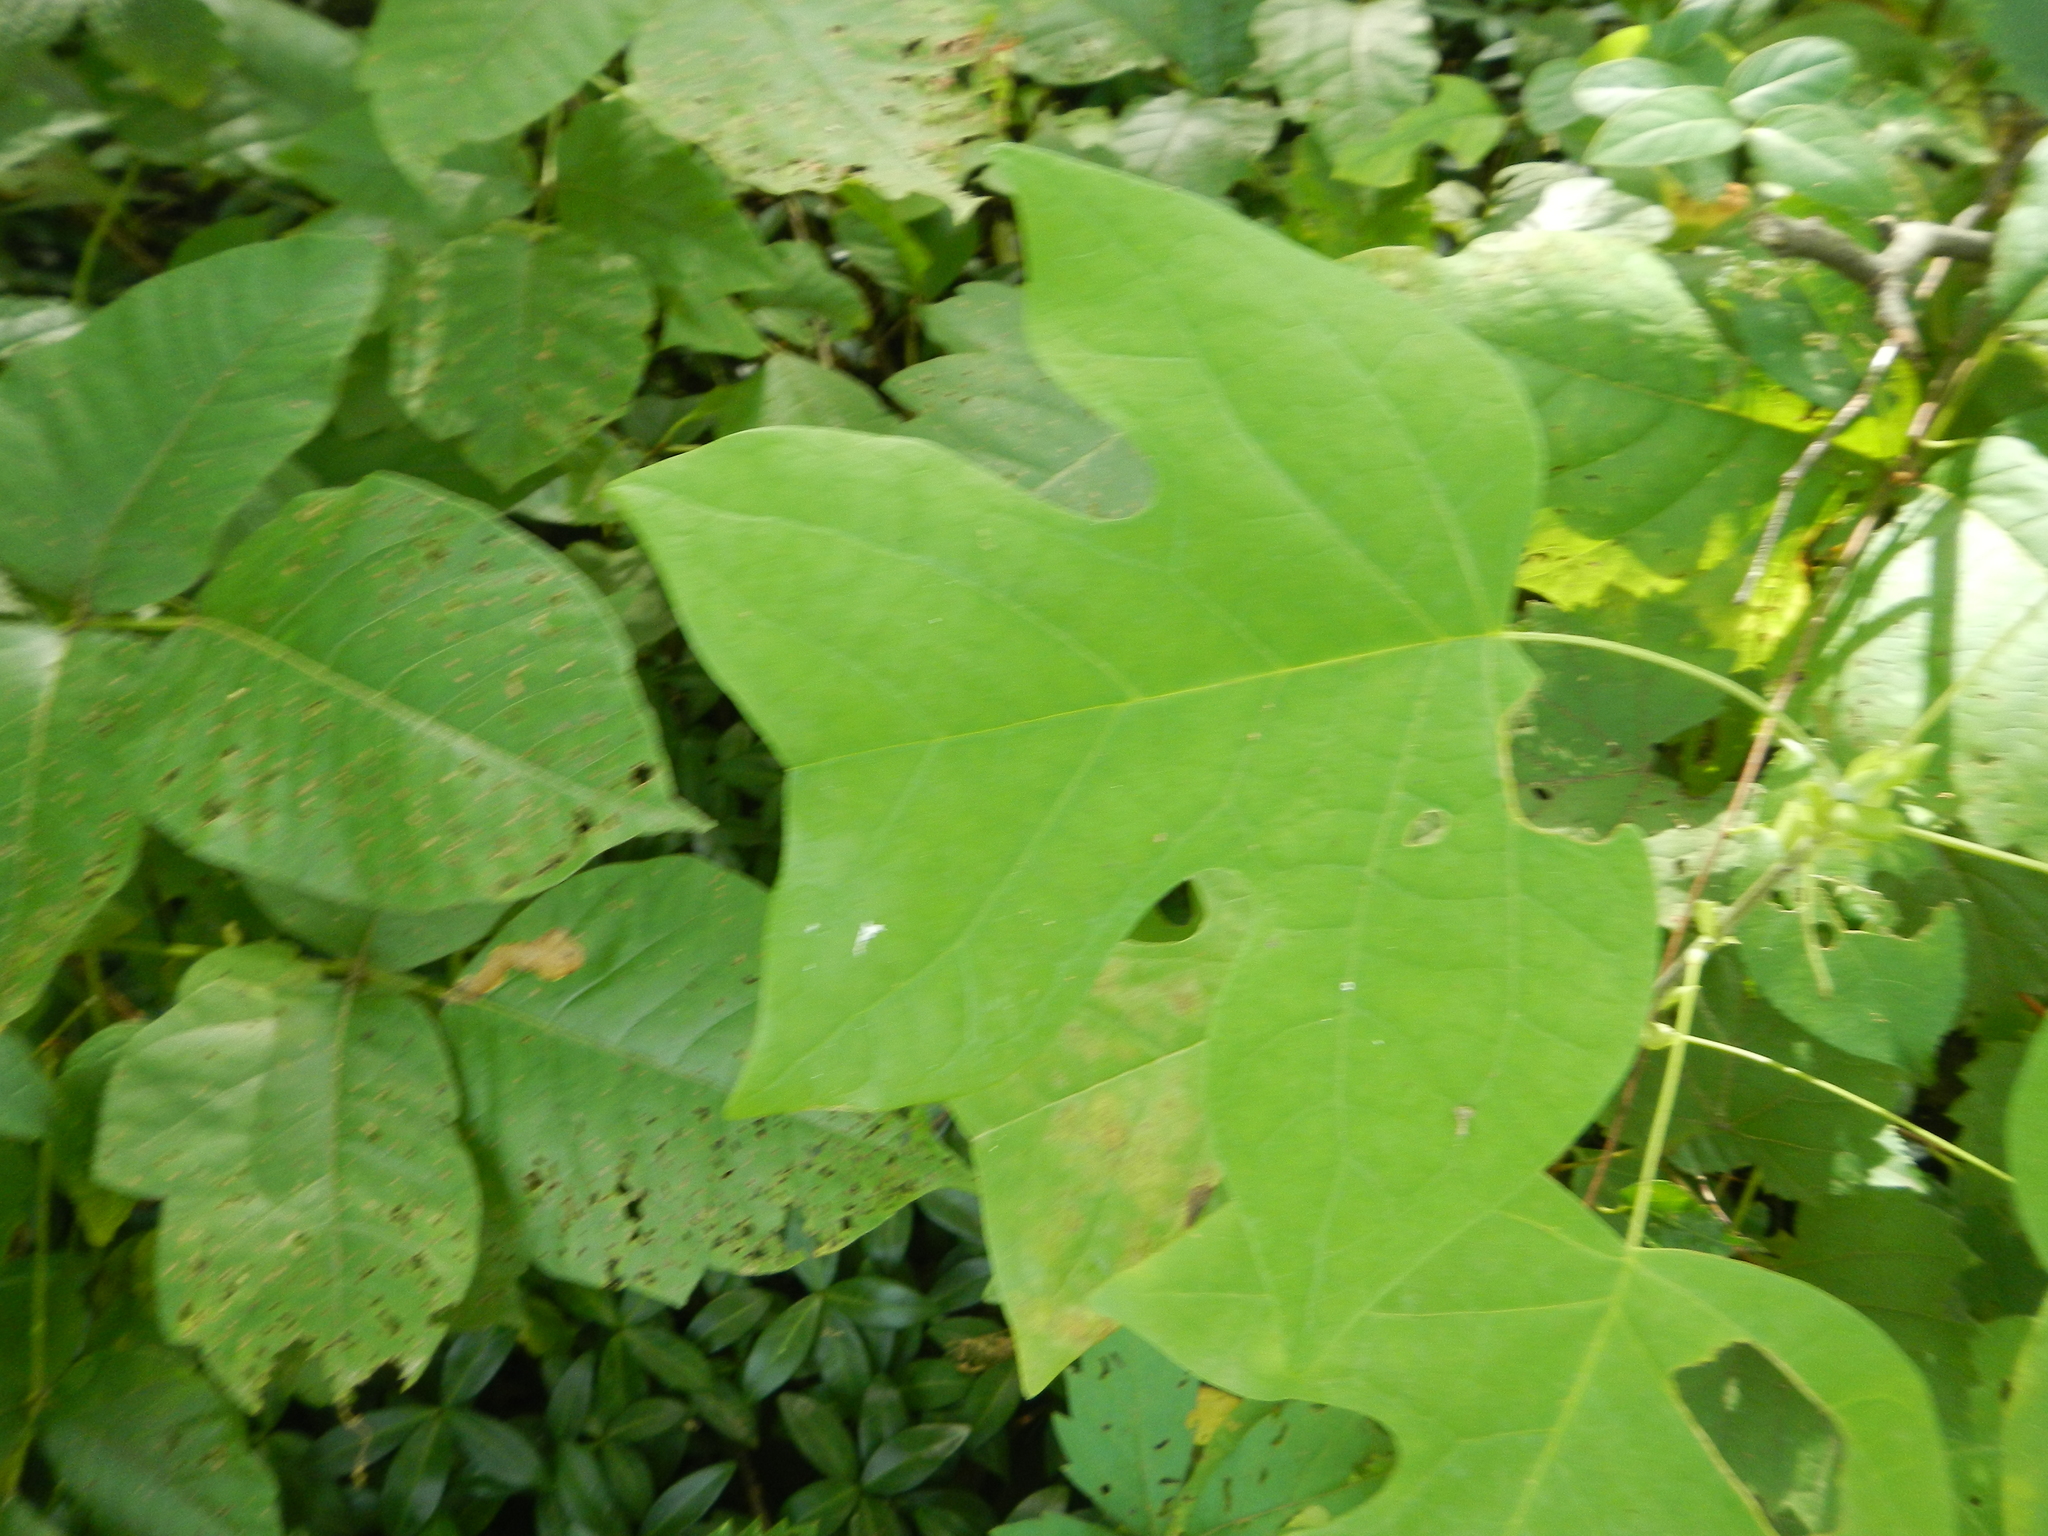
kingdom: Plantae
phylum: Tracheophyta
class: Magnoliopsida
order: Magnoliales
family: Magnoliaceae
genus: Liriodendron
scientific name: Liriodendron tulipifera
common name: Tulip tree
